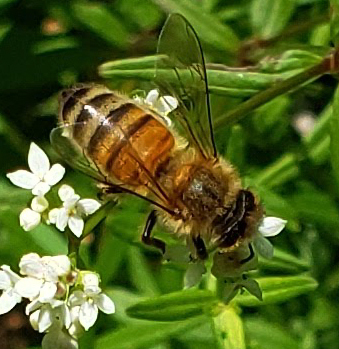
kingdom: Animalia
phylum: Arthropoda
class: Insecta
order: Hymenoptera
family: Apidae
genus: Apis
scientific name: Apis mellifera
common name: Honey bee
